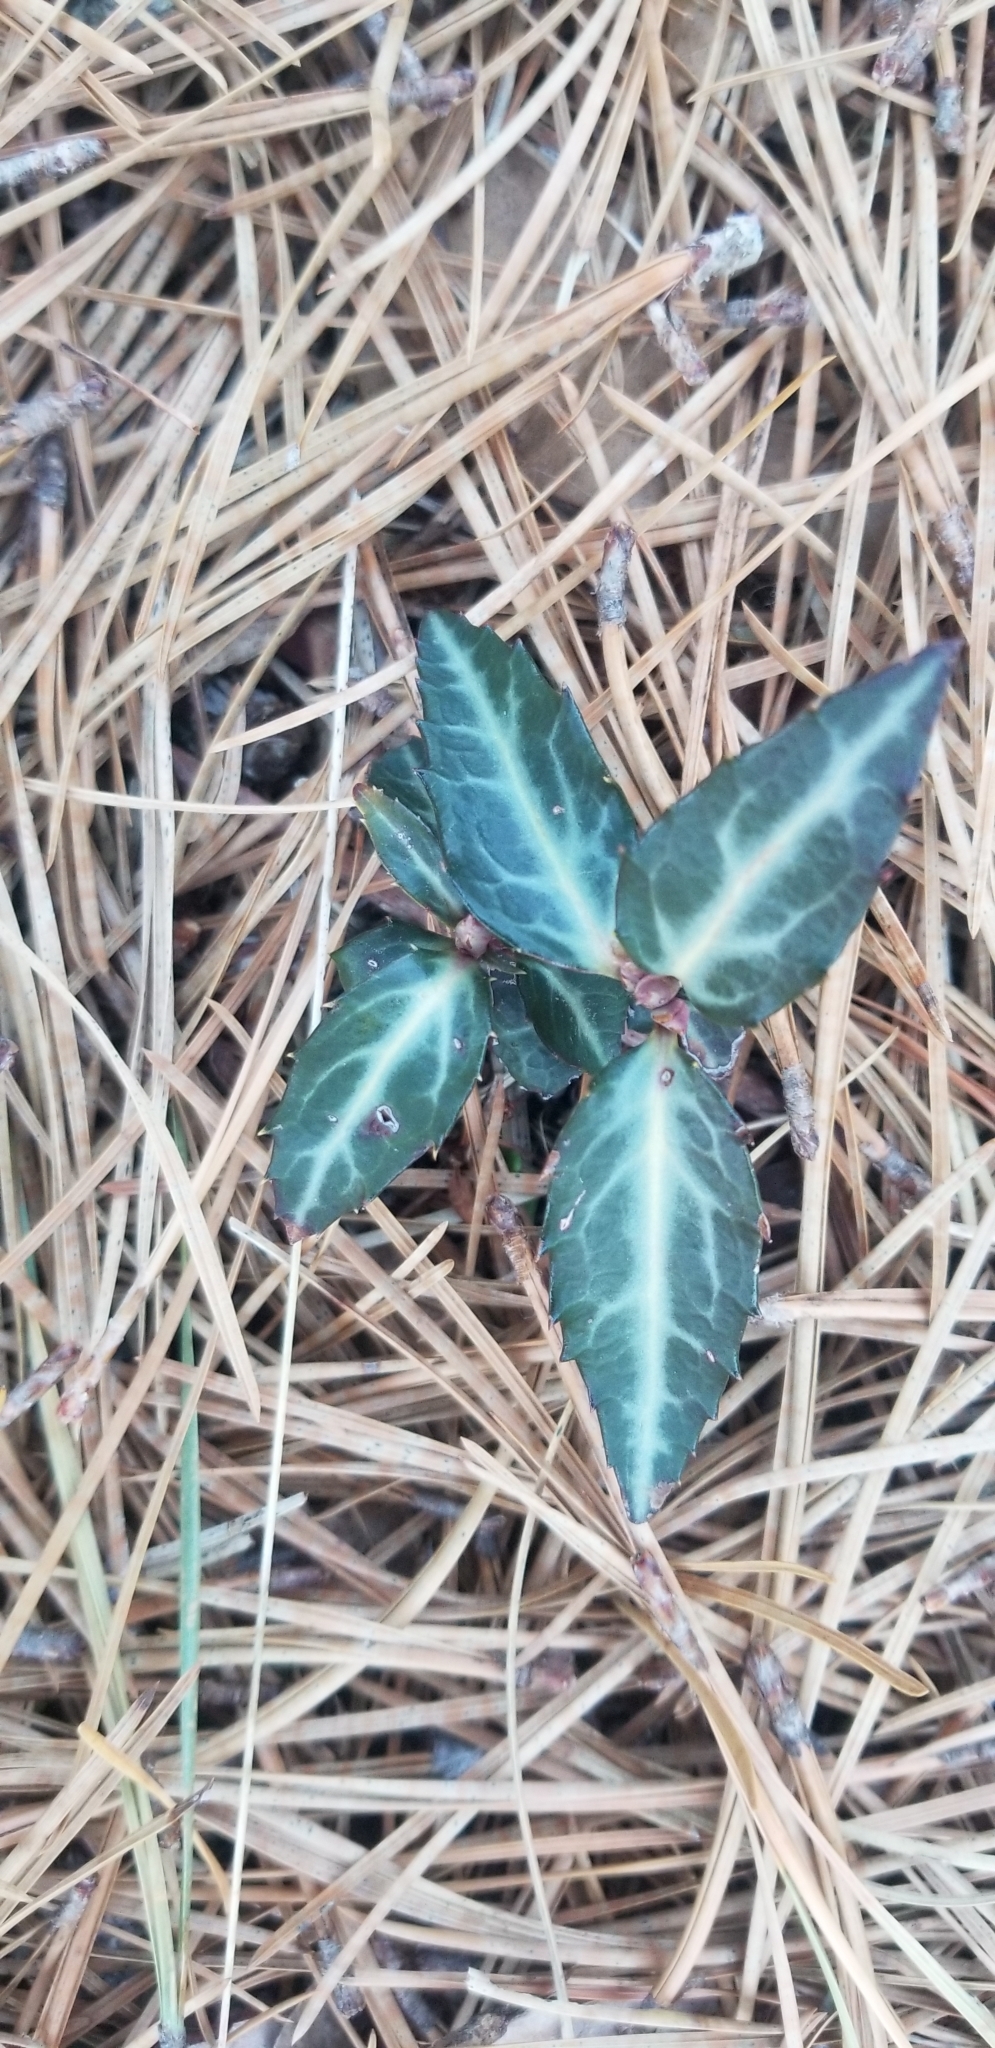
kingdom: Plantae
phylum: Tracheophyta
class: Magnoliopsida
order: Ericales
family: Ericaceae
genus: Chimaphila
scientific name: Chimaphila maculata
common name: Spotted pipsissewa
